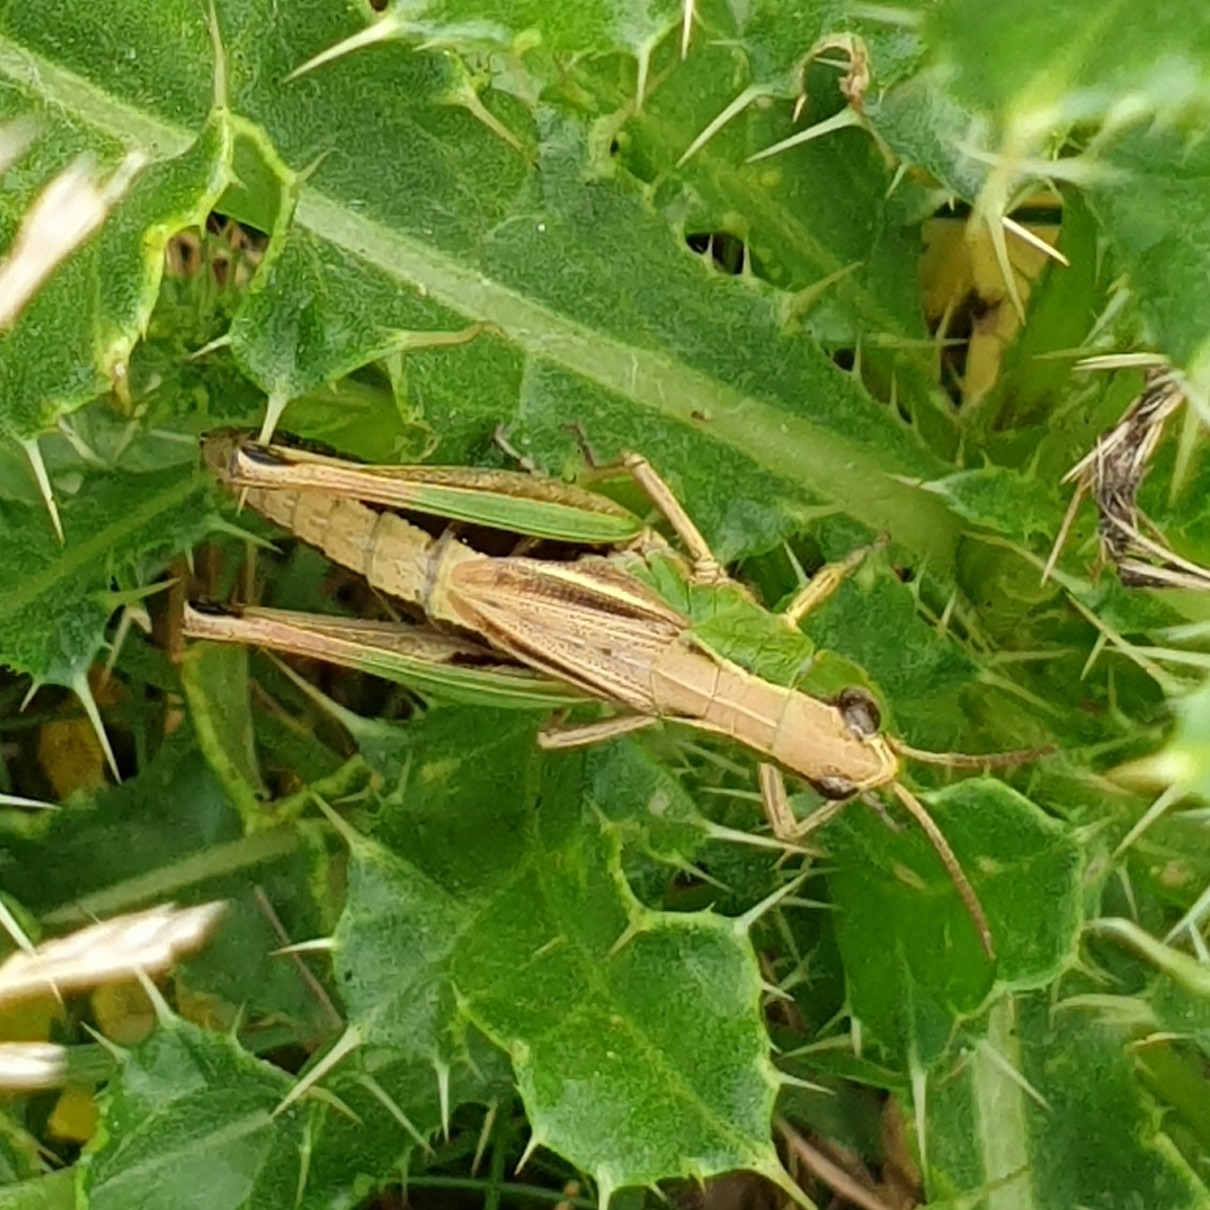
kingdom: Animalia
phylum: Arthropoda
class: Insecta
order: Orthoptera
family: Acrididae
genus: Pseudochorthippus
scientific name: Pseudochorthippus parallelus
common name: Meadow grasshopper
